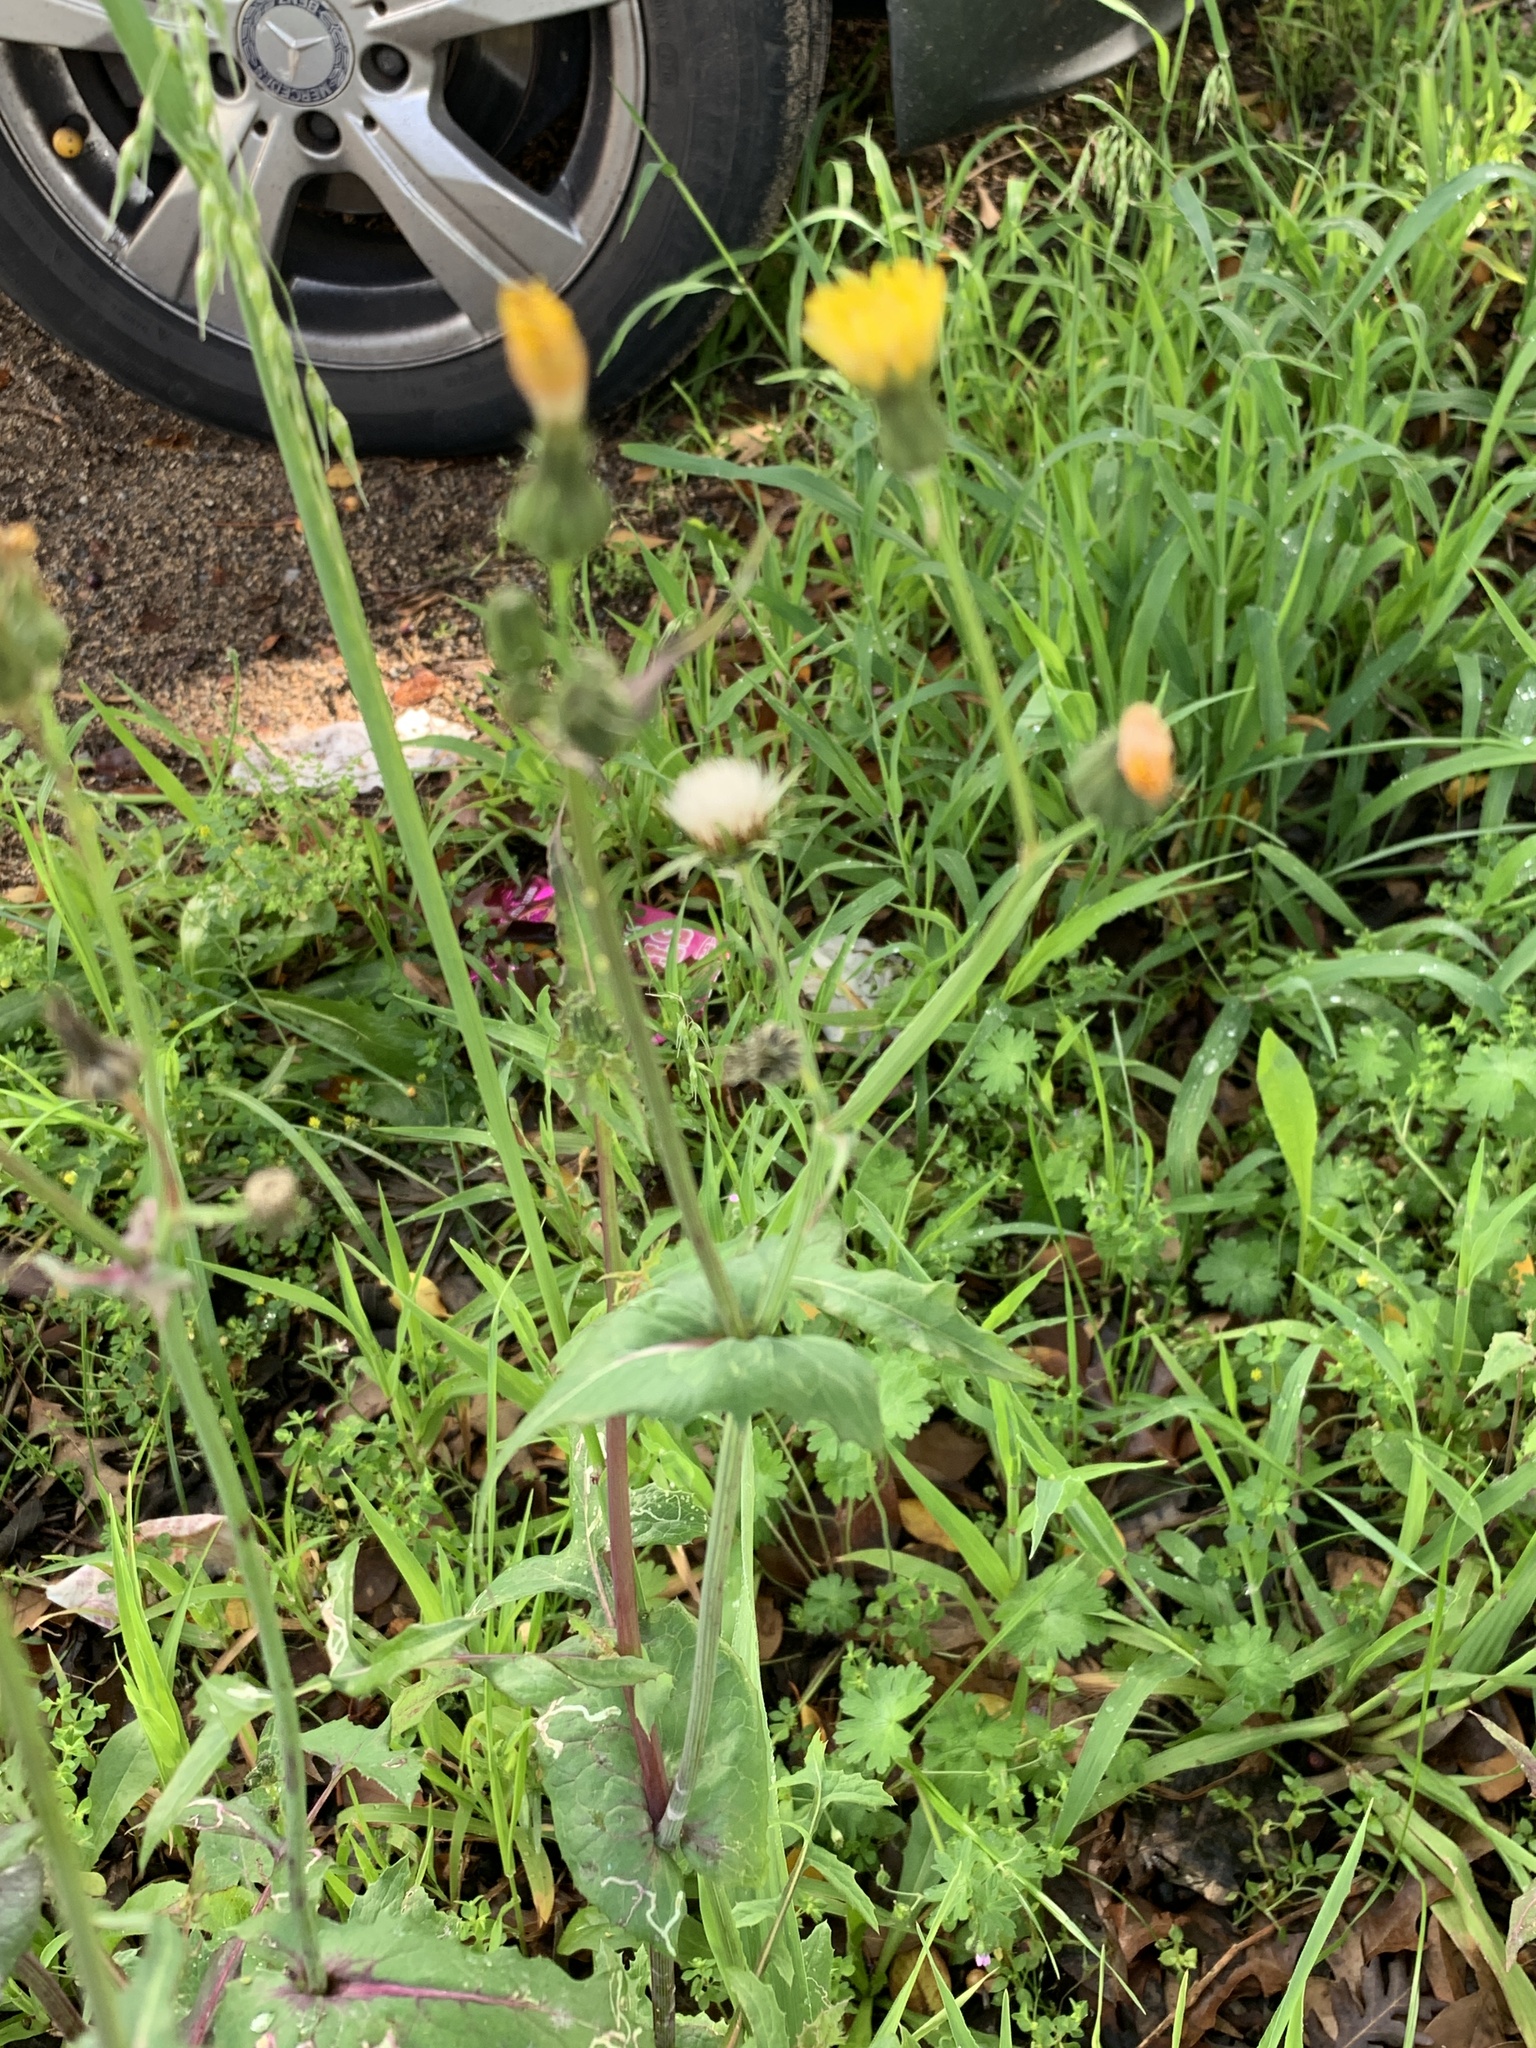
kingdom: Plantae
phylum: Tracheophyta
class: Magnoliopsida
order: Asterales
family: Asteraceae
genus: Sonchus
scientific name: Sonchus oleraceus
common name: Common sowthistle
